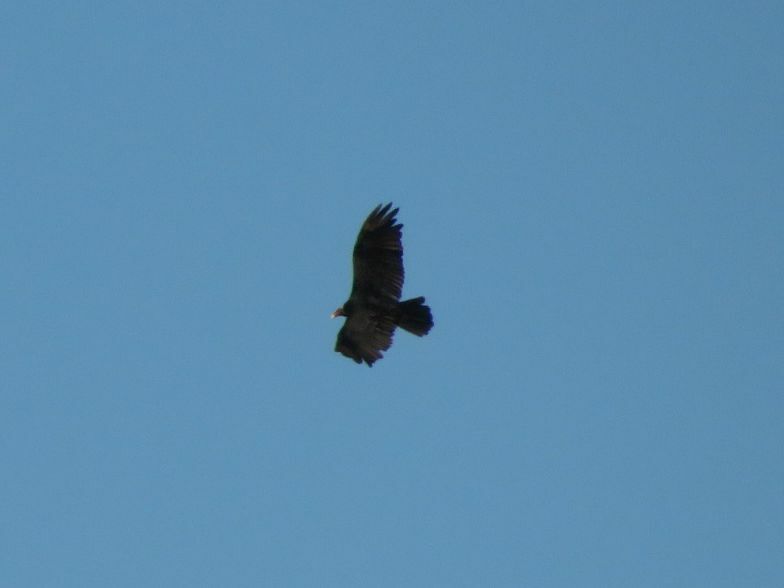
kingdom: Animalia
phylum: Chordata
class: Aves
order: Accipitriformes
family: Cathartidae
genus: Cathartes
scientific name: Cathartes aura
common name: Turkey vulture
